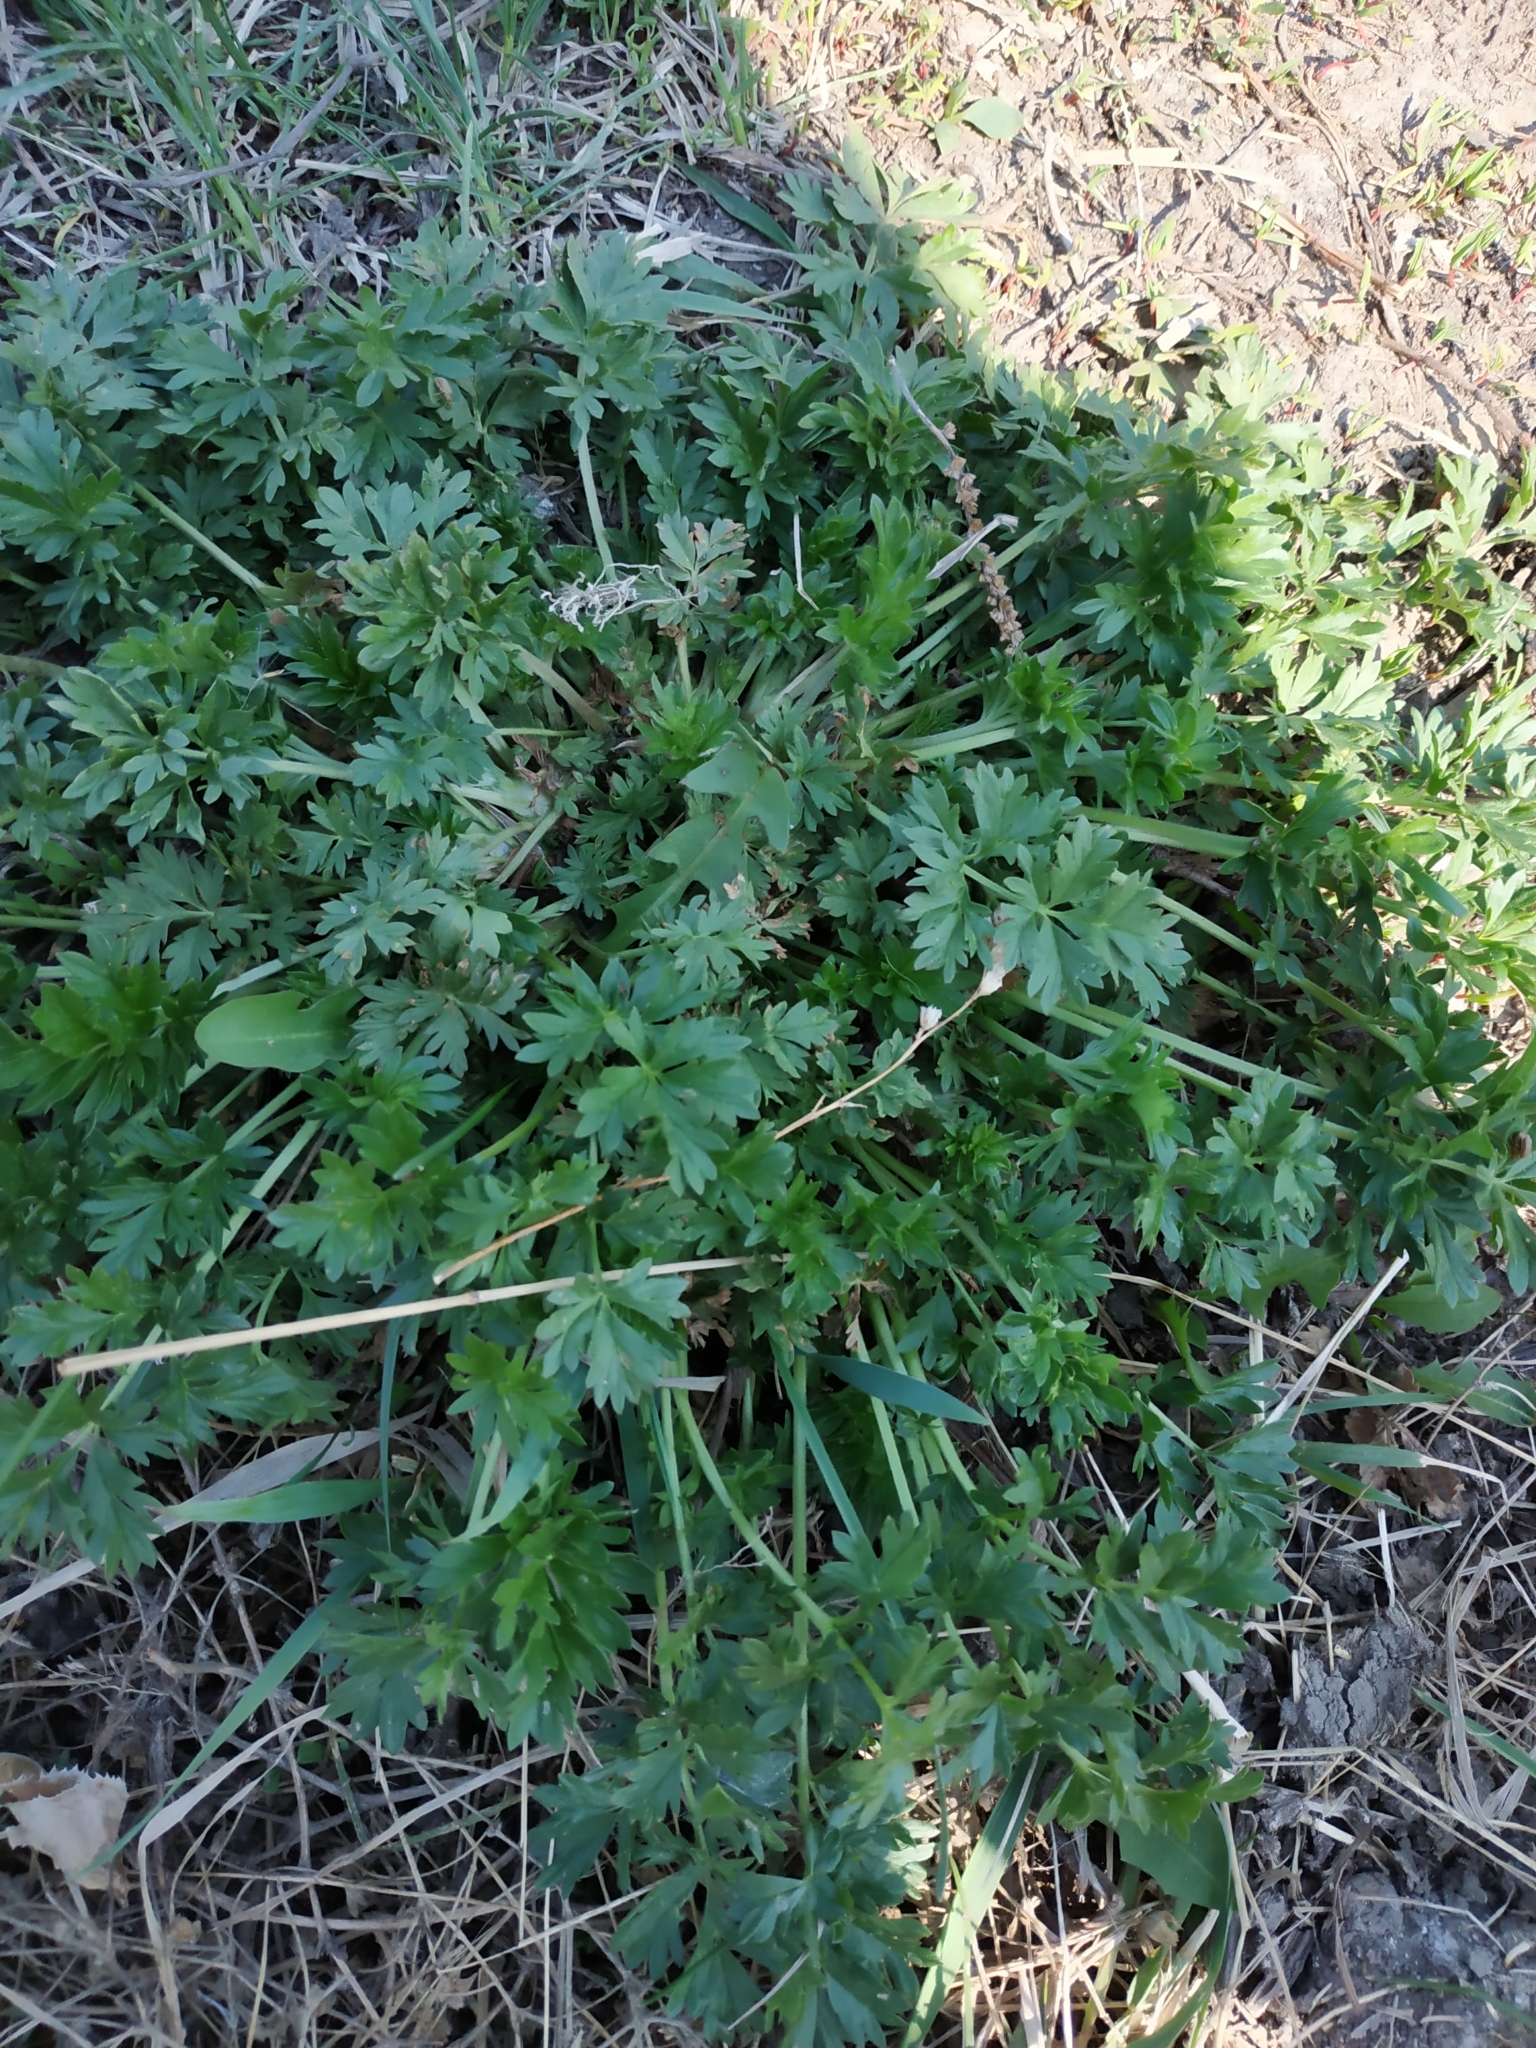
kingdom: Plantae
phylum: Tracheophyta
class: Magnoliopsida
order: Rosales
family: Rosaceae
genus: Potentilla
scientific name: Potentilla supina
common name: Prostrate cinquefoil
